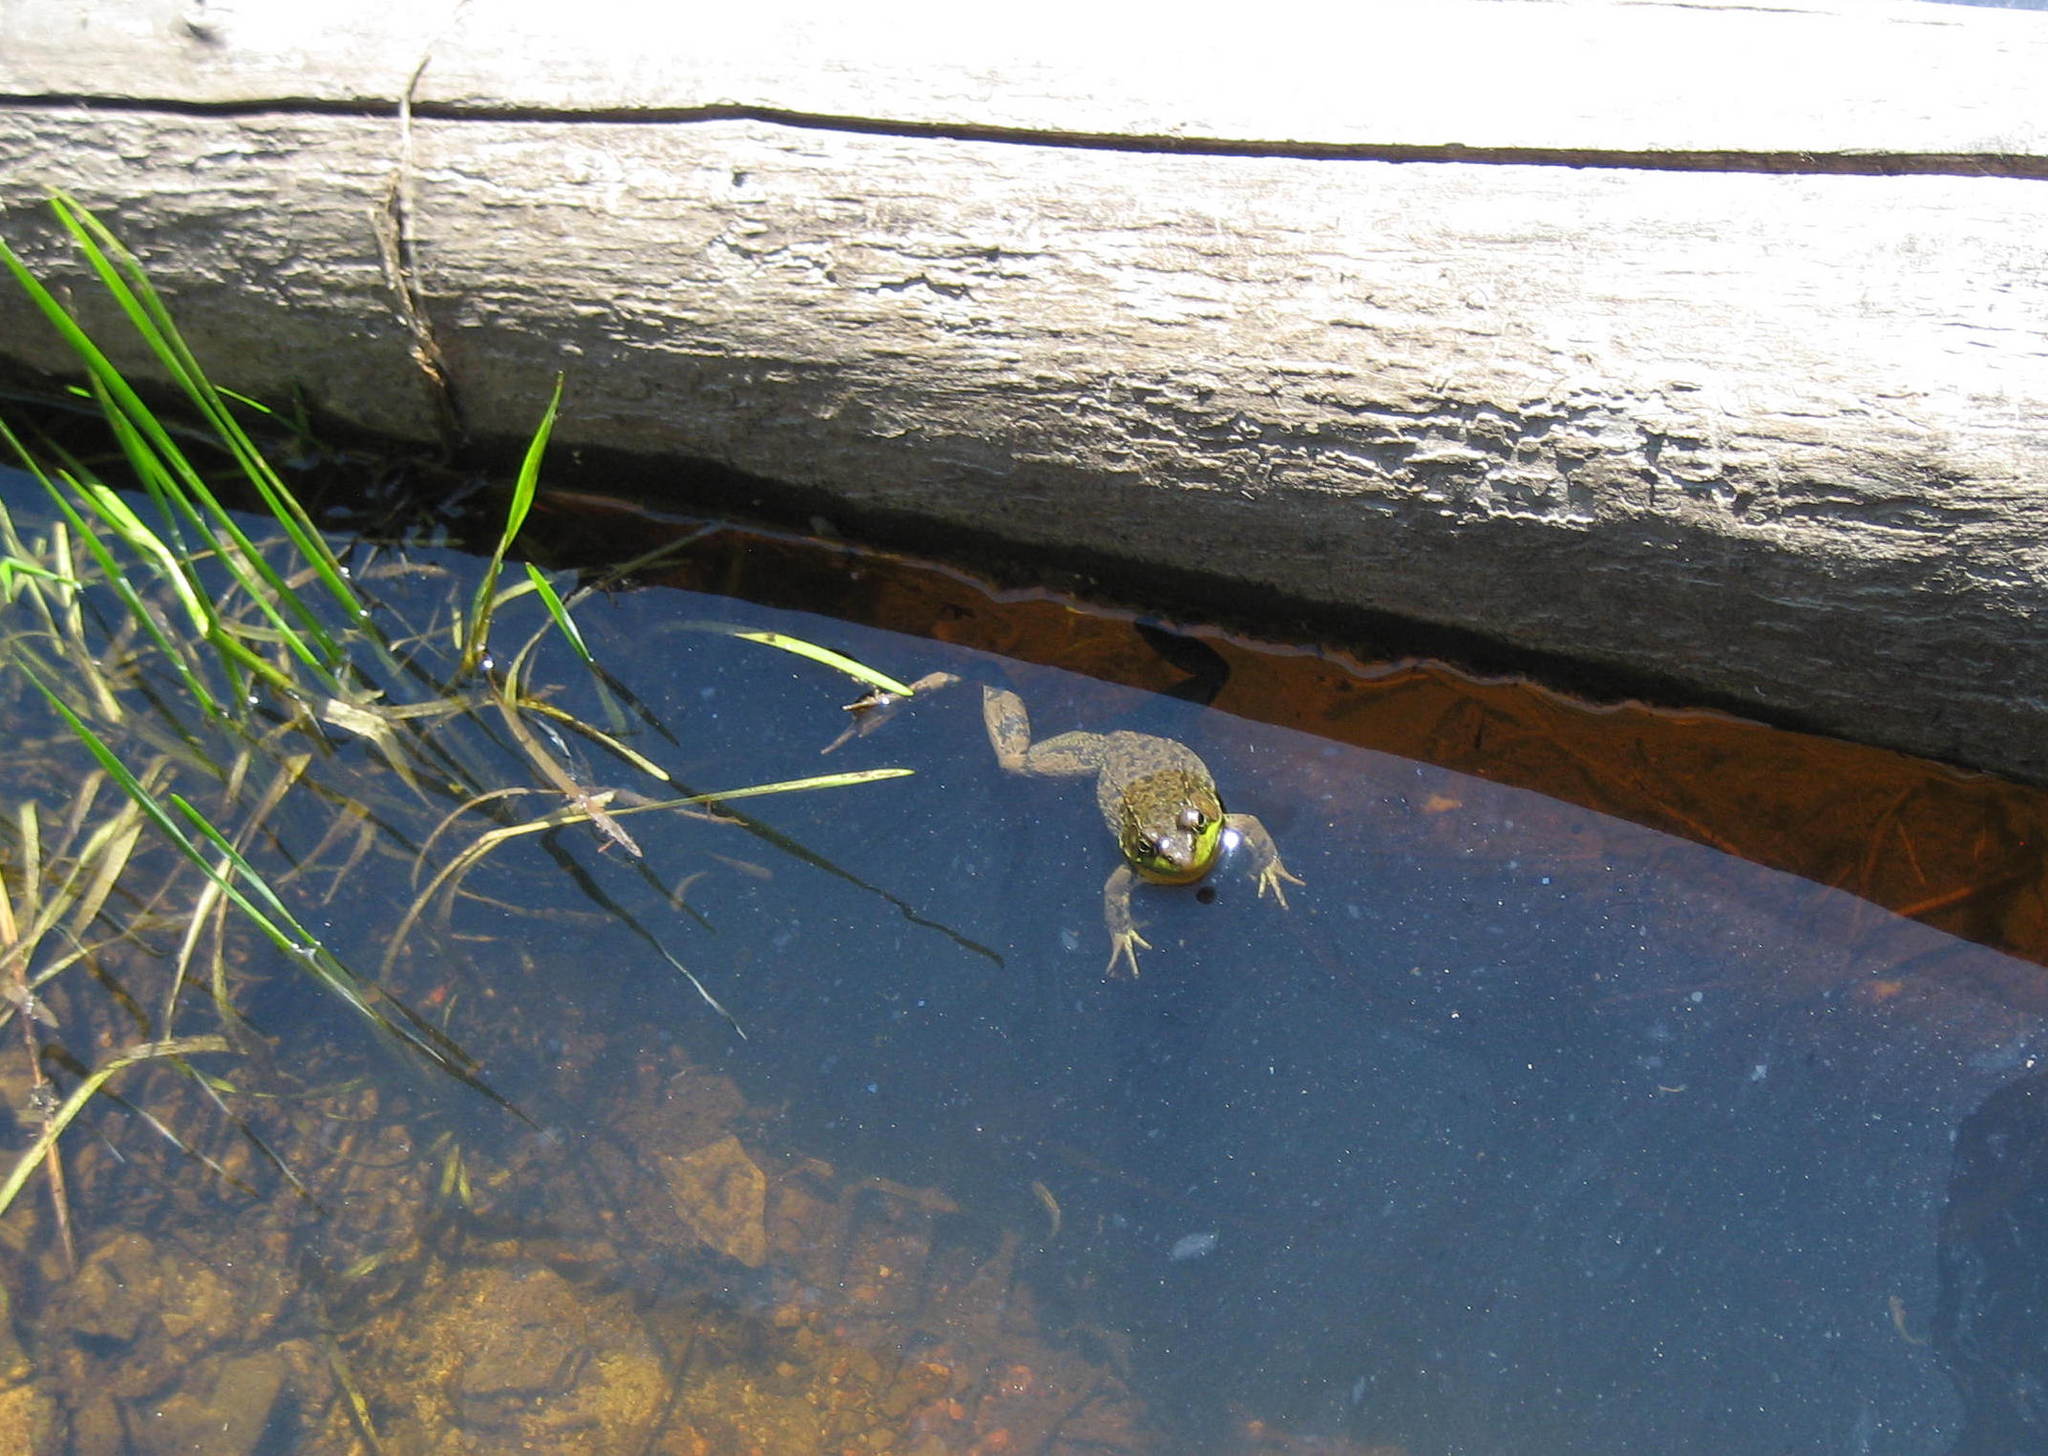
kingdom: Animalia
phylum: Chordata
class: Amphibia
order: Anura
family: Ranidae
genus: Lithobates
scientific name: Lithobates clamitans
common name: Green frog
